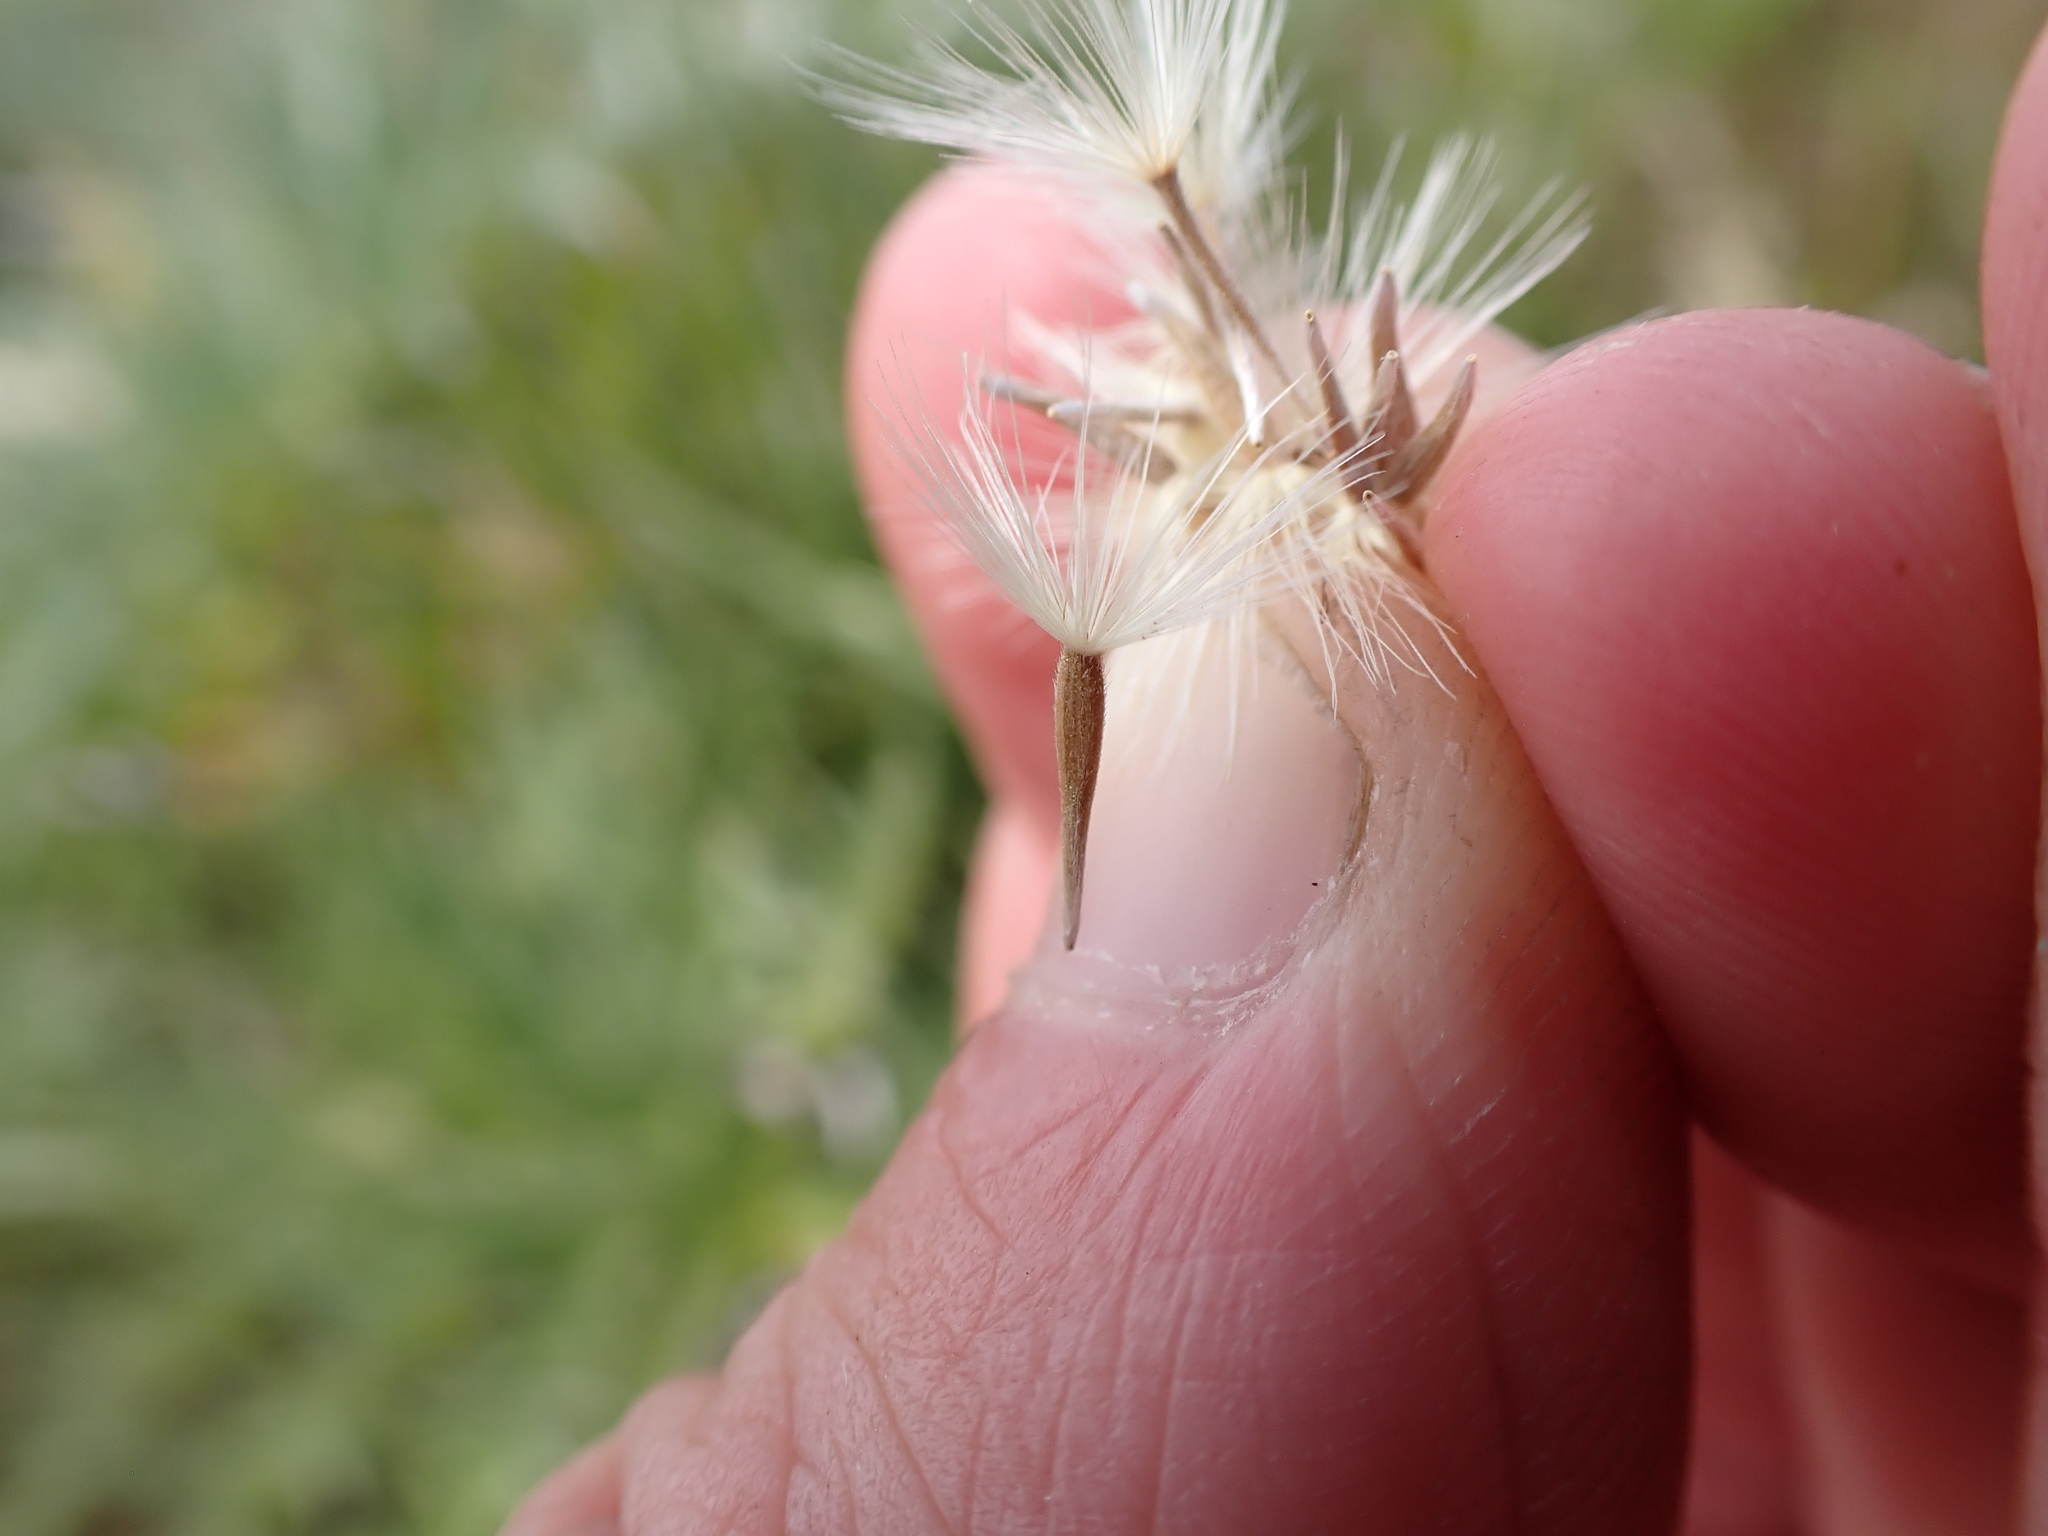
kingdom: Plantae
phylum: Tracheophyta
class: Magnoliopsida
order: Asterales
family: Asteraceae
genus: Vittadinia
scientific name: Vittadinia gracilis
